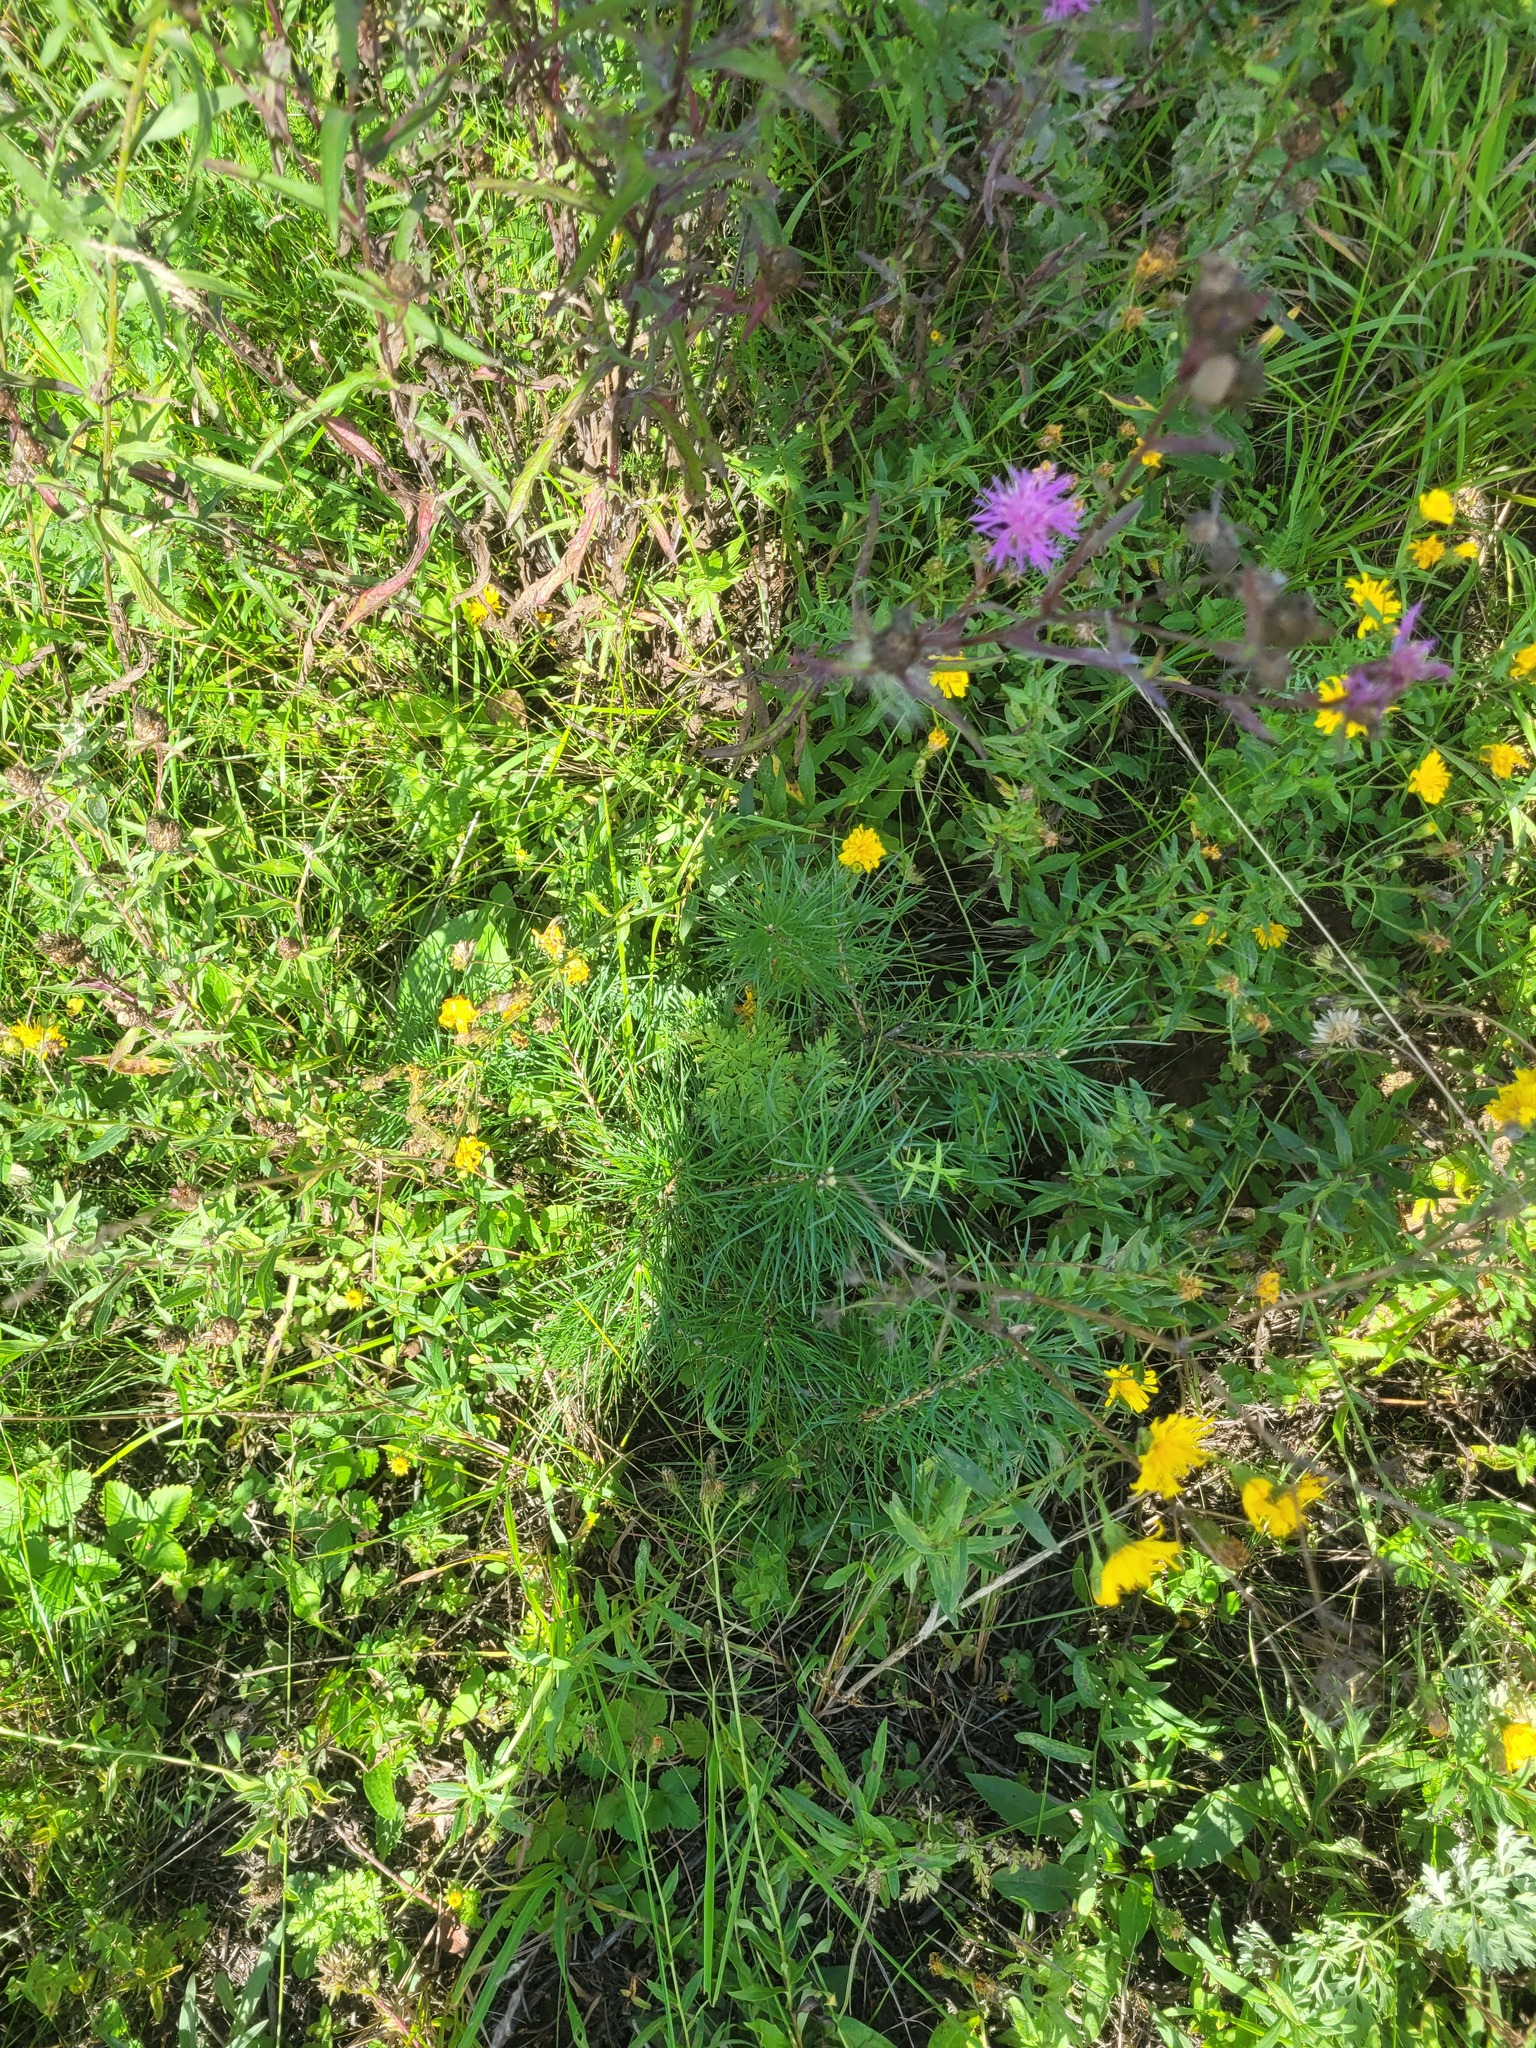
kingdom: Plantae
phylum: Tracheophyta
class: Pinopsida
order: Pinales
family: Pinaceae
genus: Pinus
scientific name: Pinus sylvestris
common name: Scots pine
